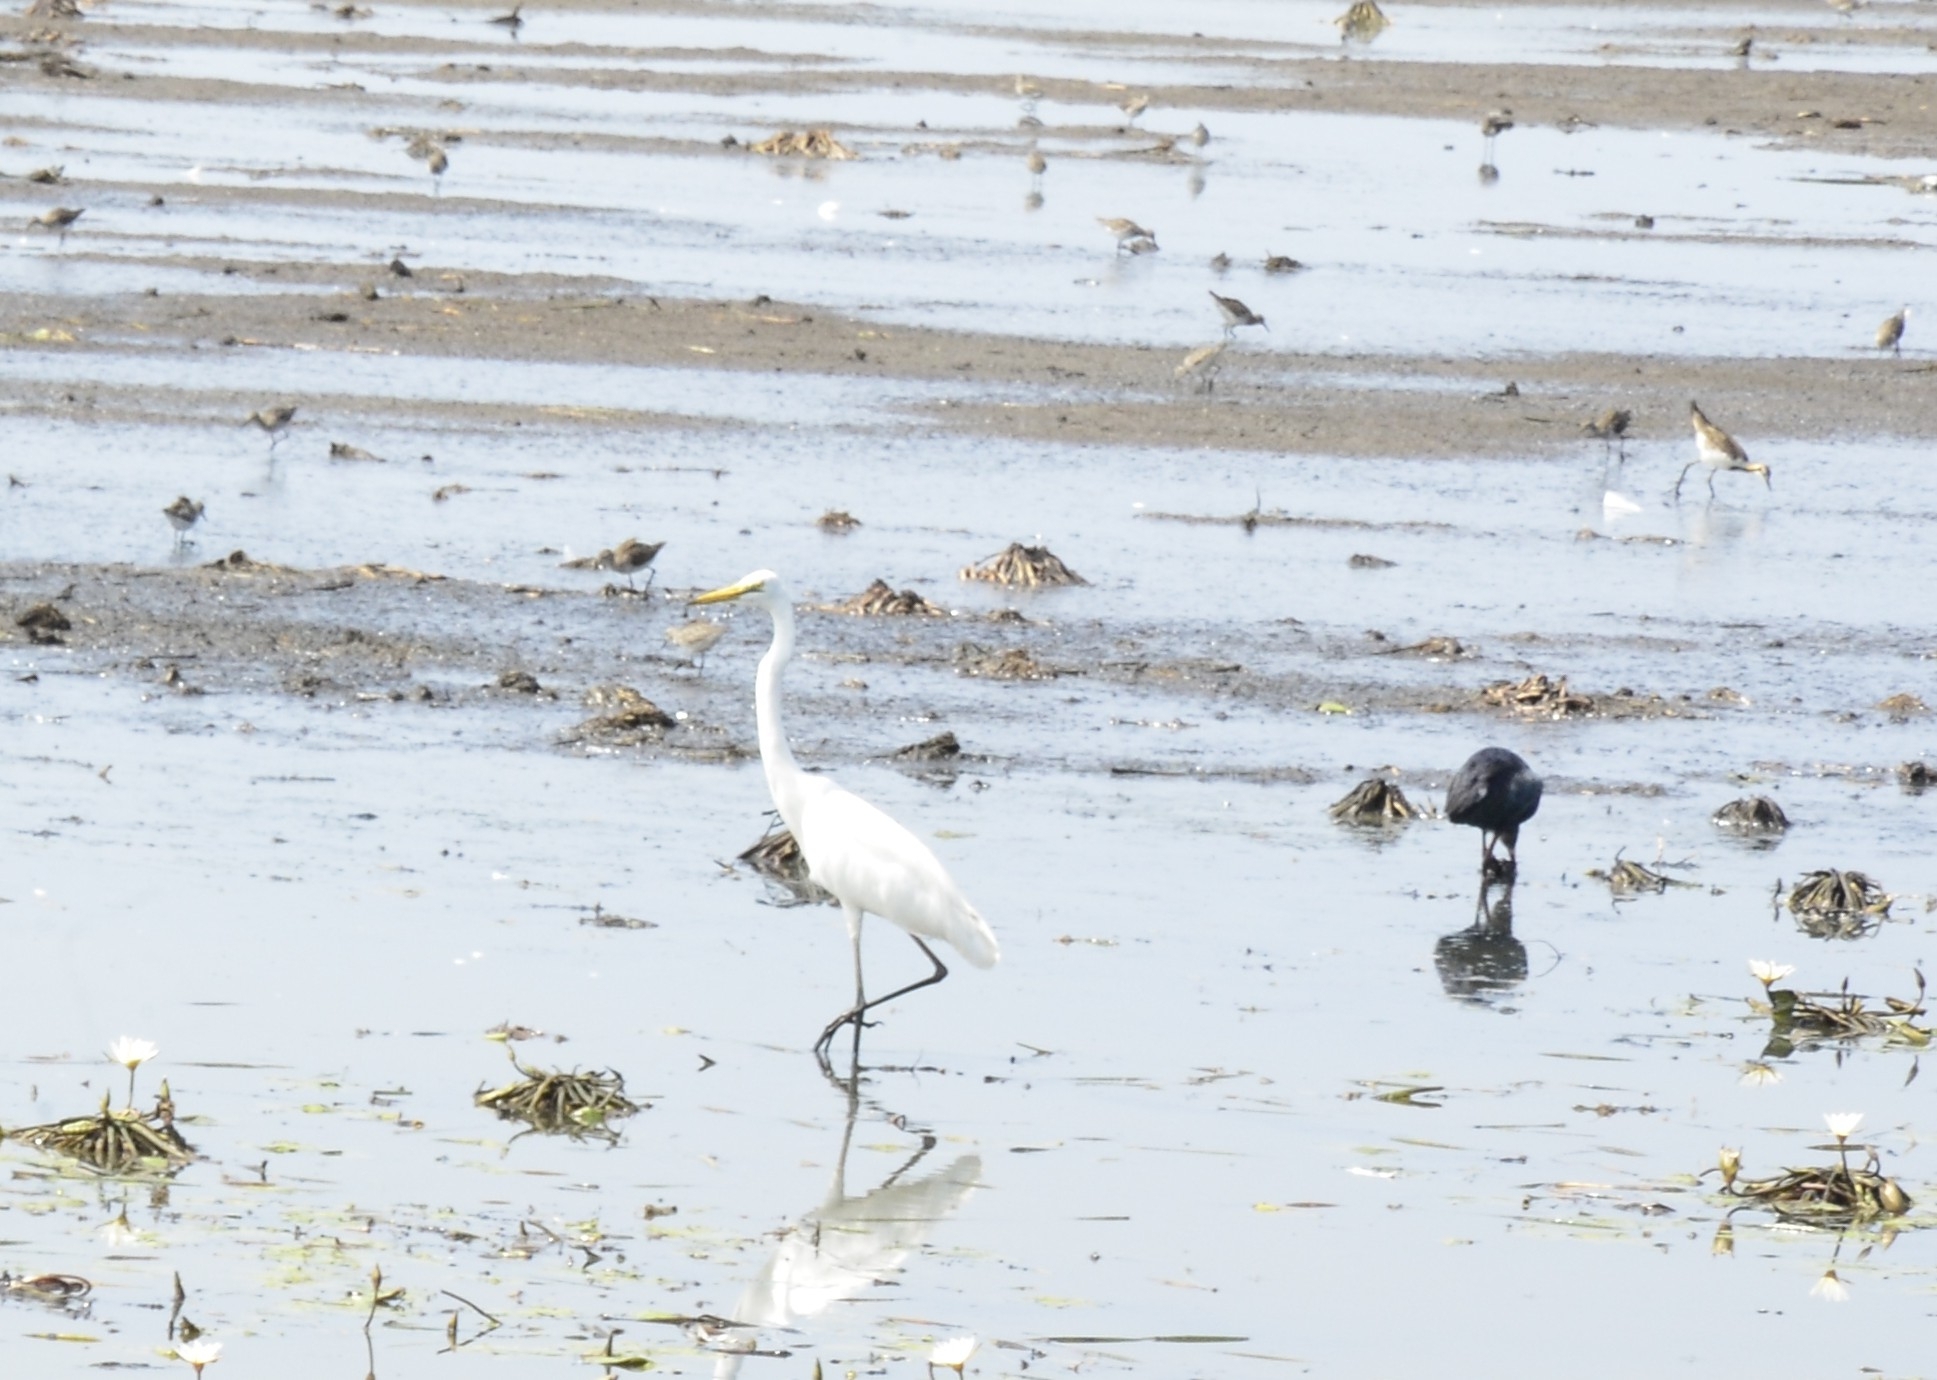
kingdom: Animalia
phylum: Chordata
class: Aves
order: Pelecaniformes
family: Ardeidae
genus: Ardea
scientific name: Ardea alba
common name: Great egret
